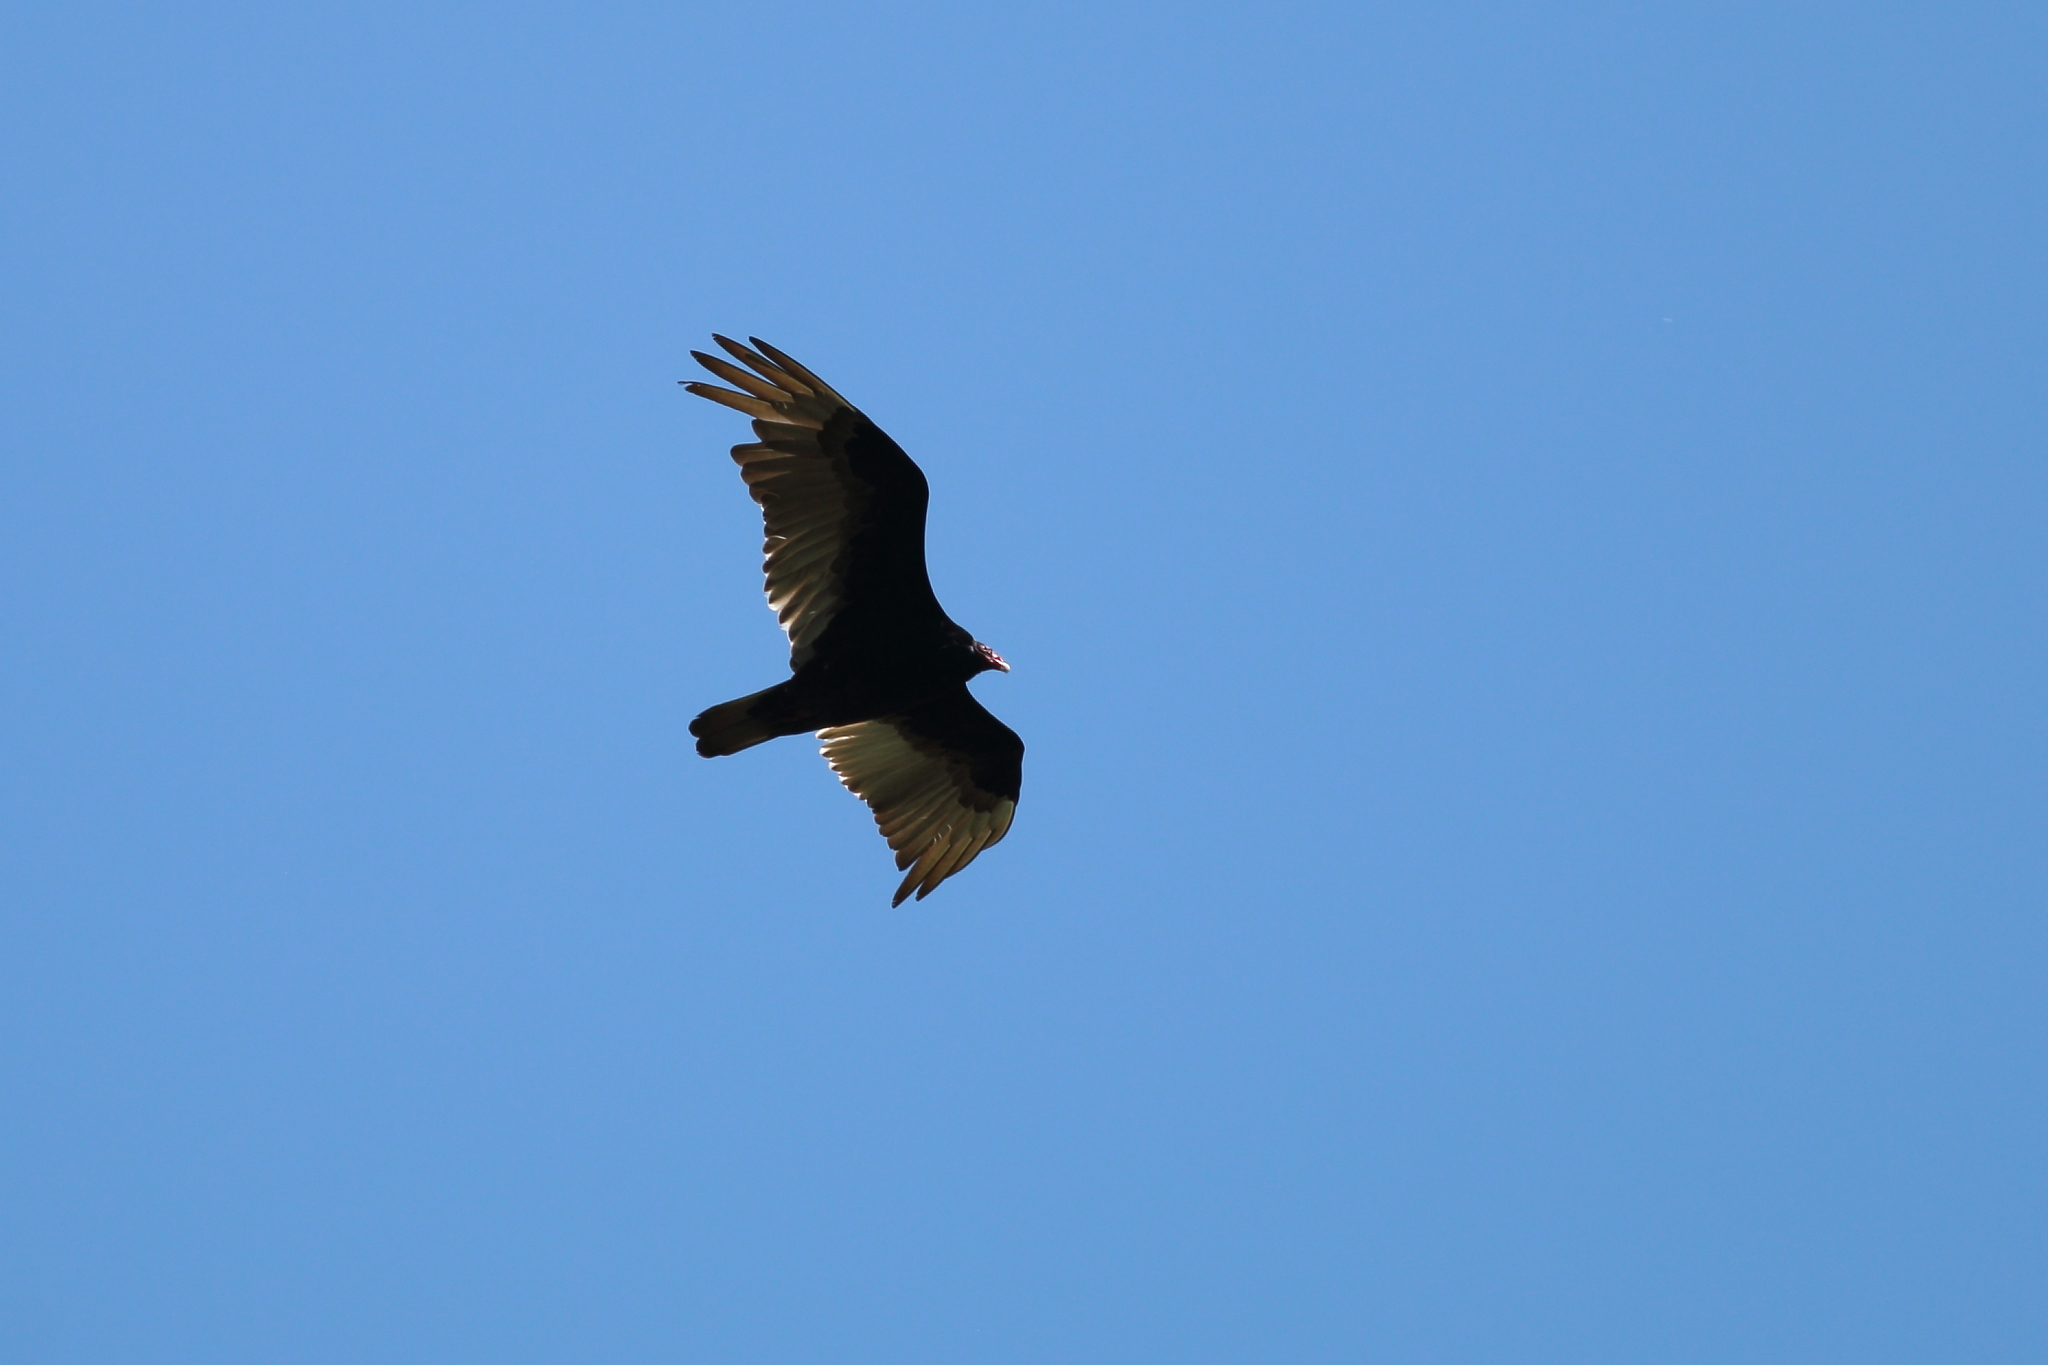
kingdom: Animalia
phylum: Chordata
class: Aves
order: Accipitriformes
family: Cathartidae
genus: Cathartes
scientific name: Cathartes aura
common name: Turkey vulture
